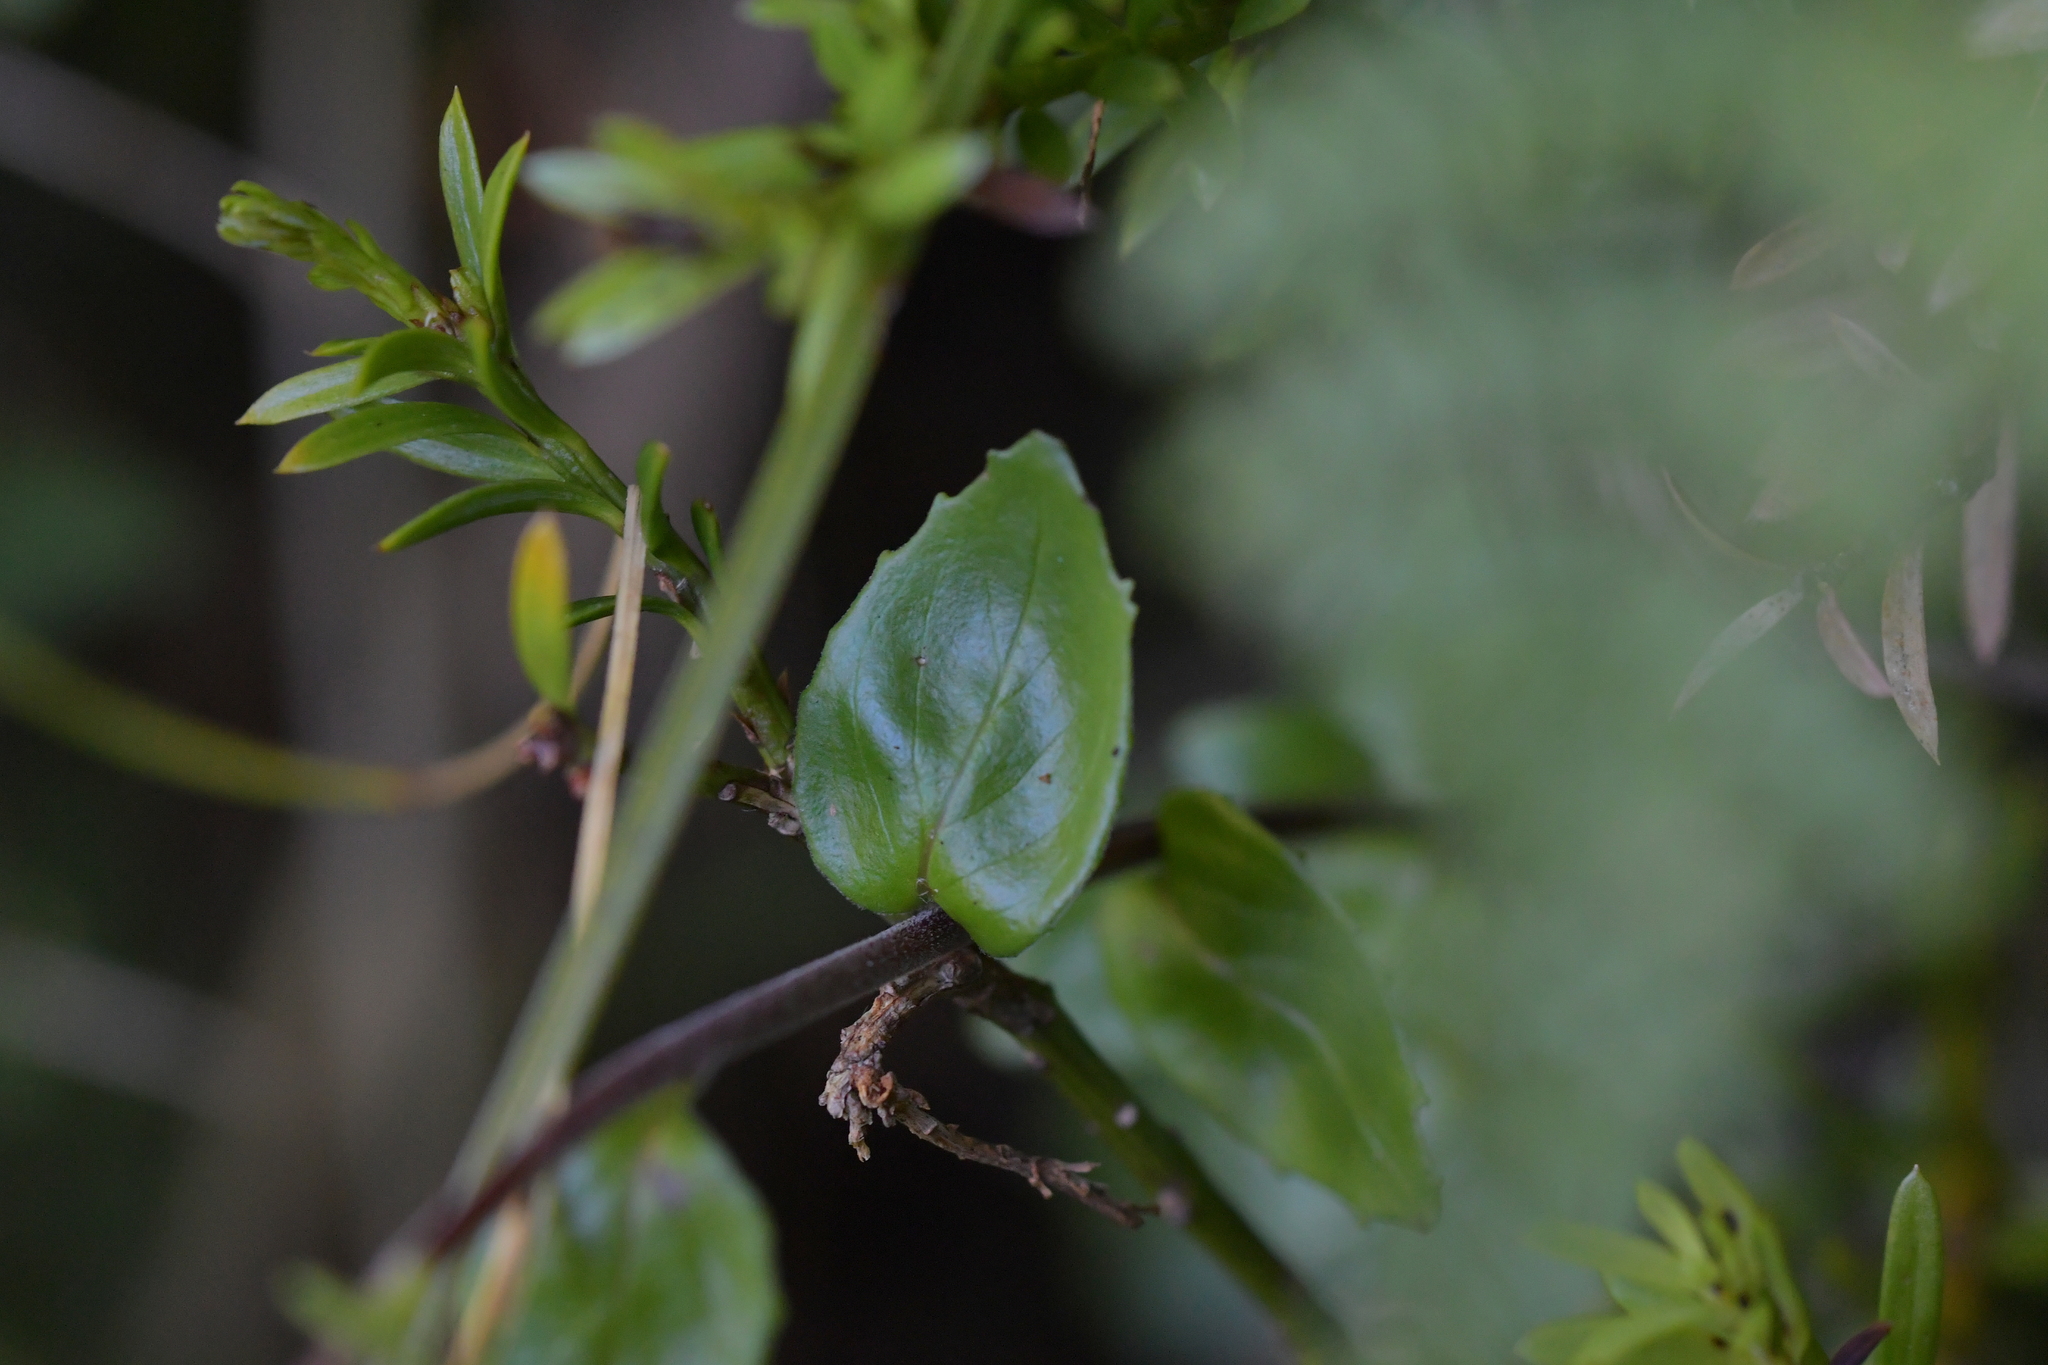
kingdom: Plantae
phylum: Tracheophyta
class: Magnoliopsida
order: Myrtales
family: Onagraceae
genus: Epilobium
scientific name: Epilobium chlorifolium
